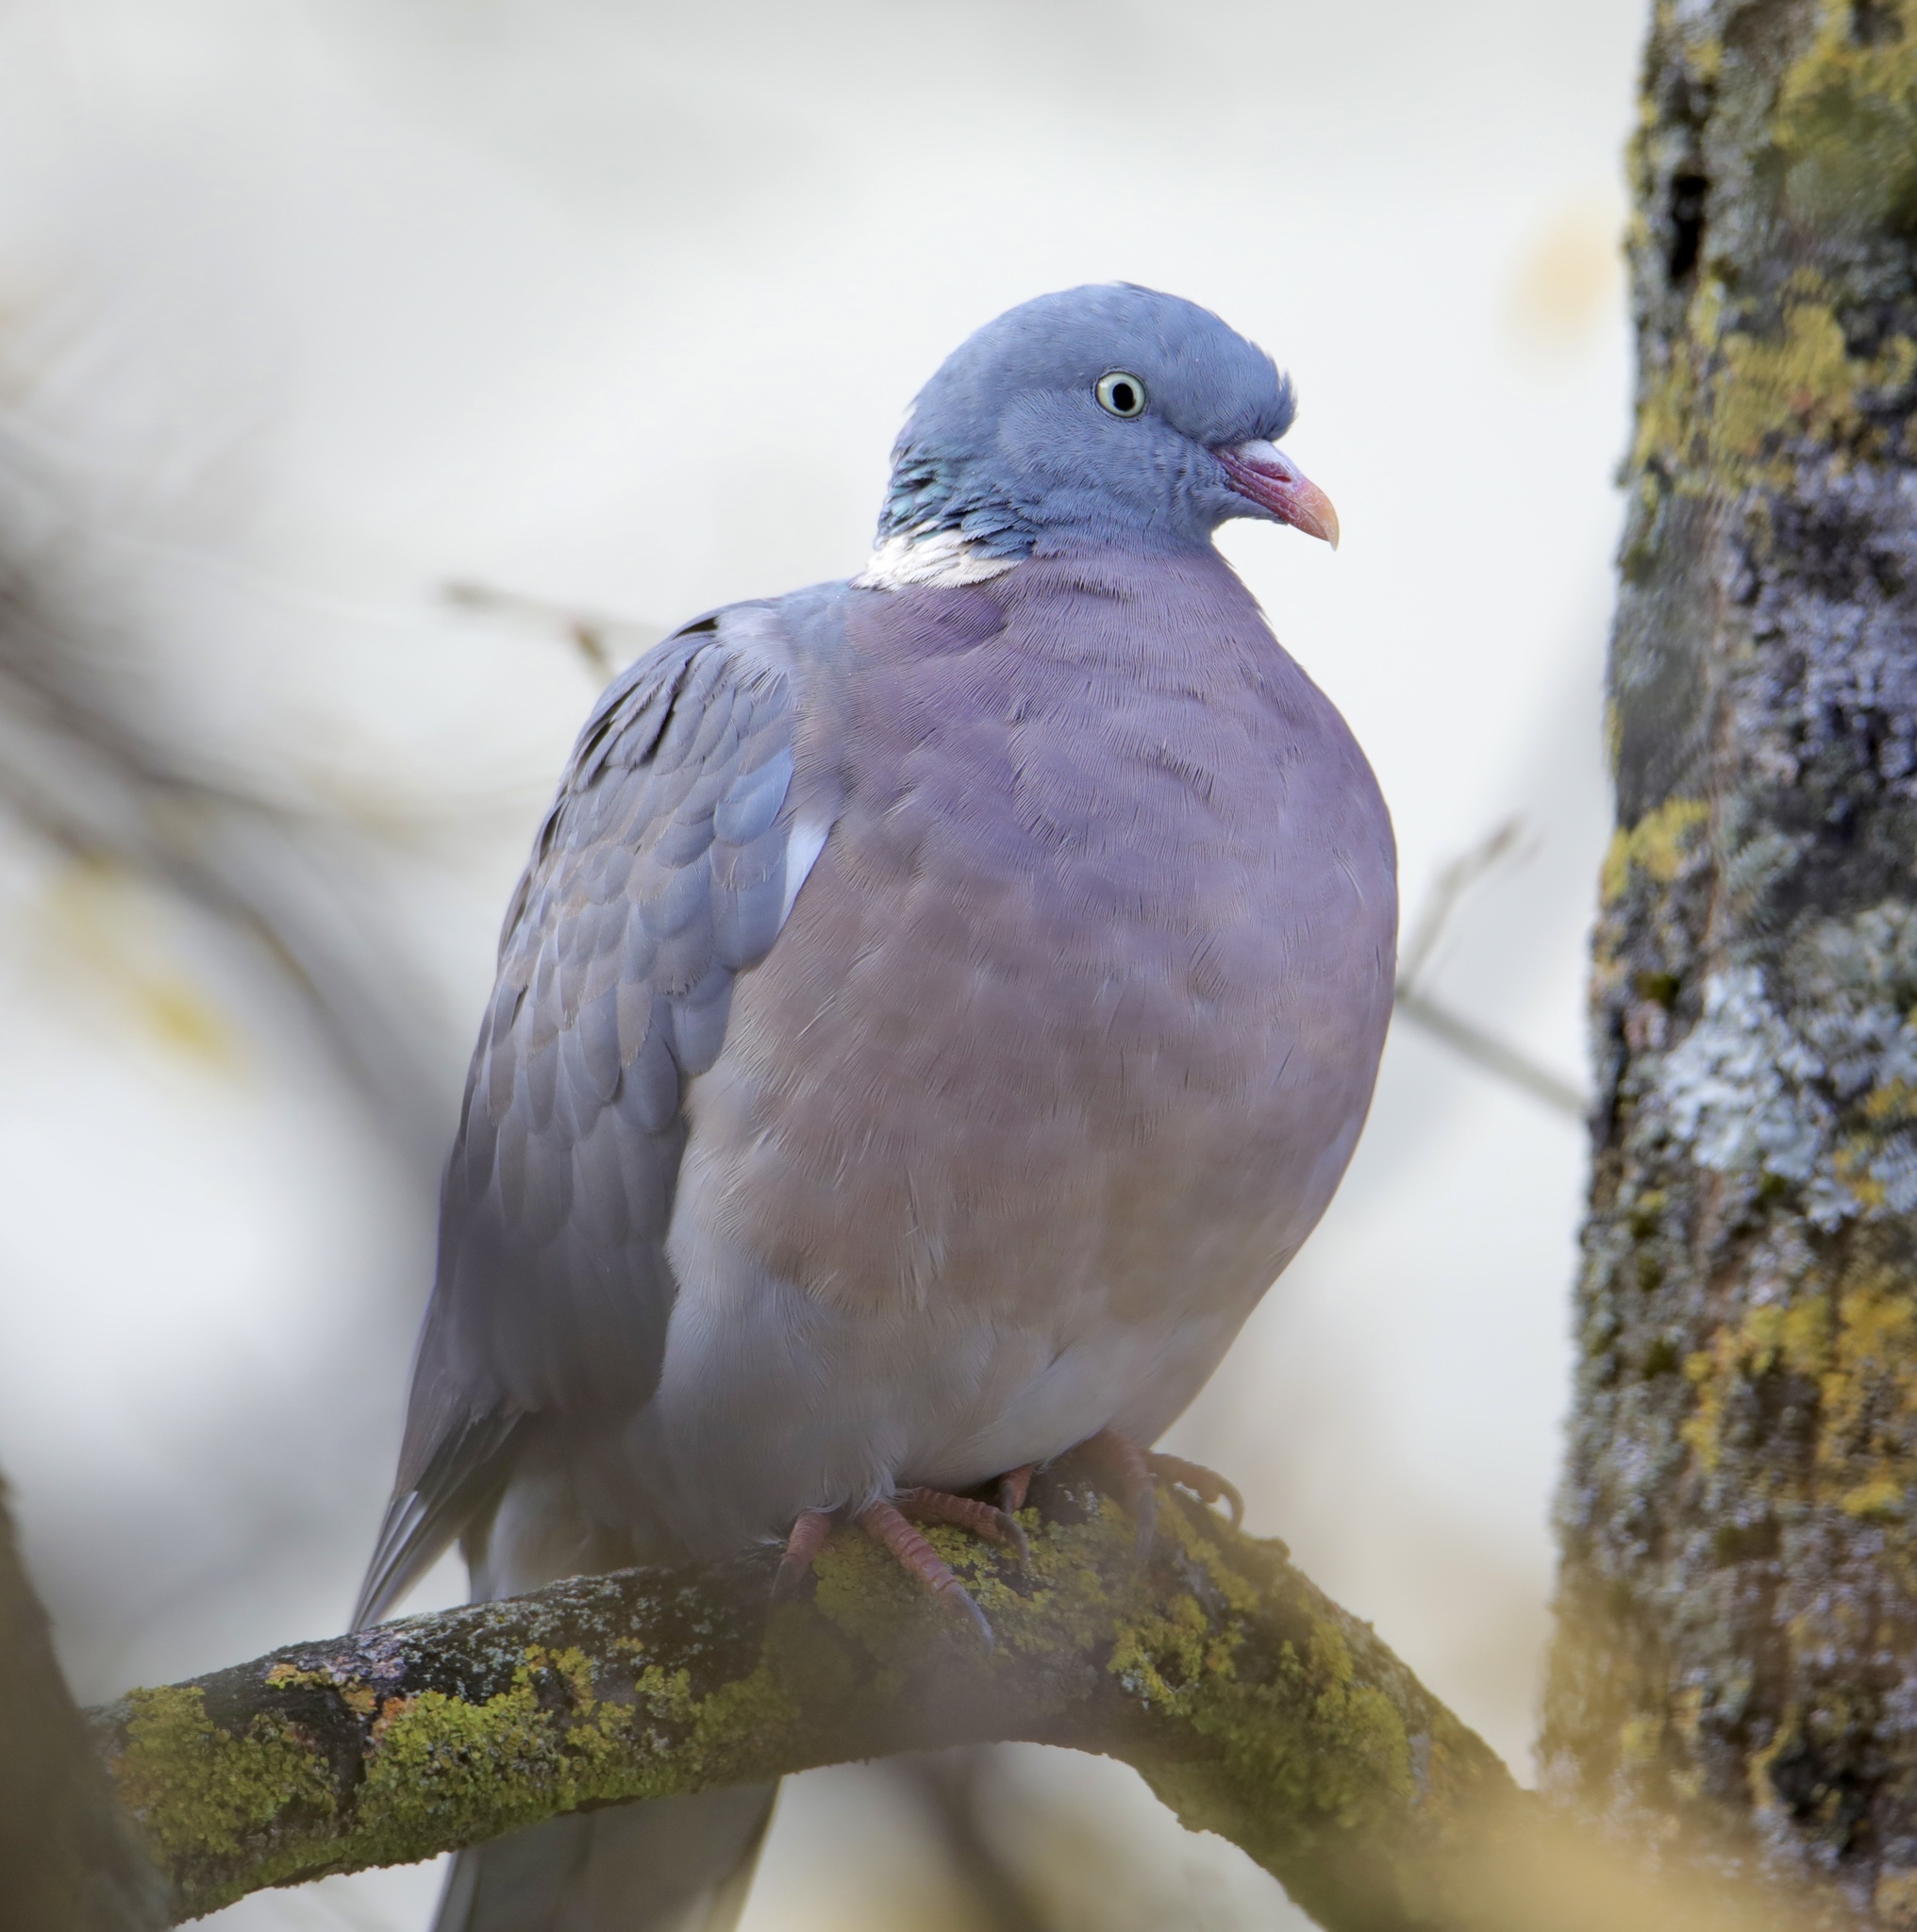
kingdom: Animalia
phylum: Chordata
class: Aves
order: Columbiformes
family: Columbidae
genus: Columba
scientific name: Columba palumbus
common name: Common wood pigeon
